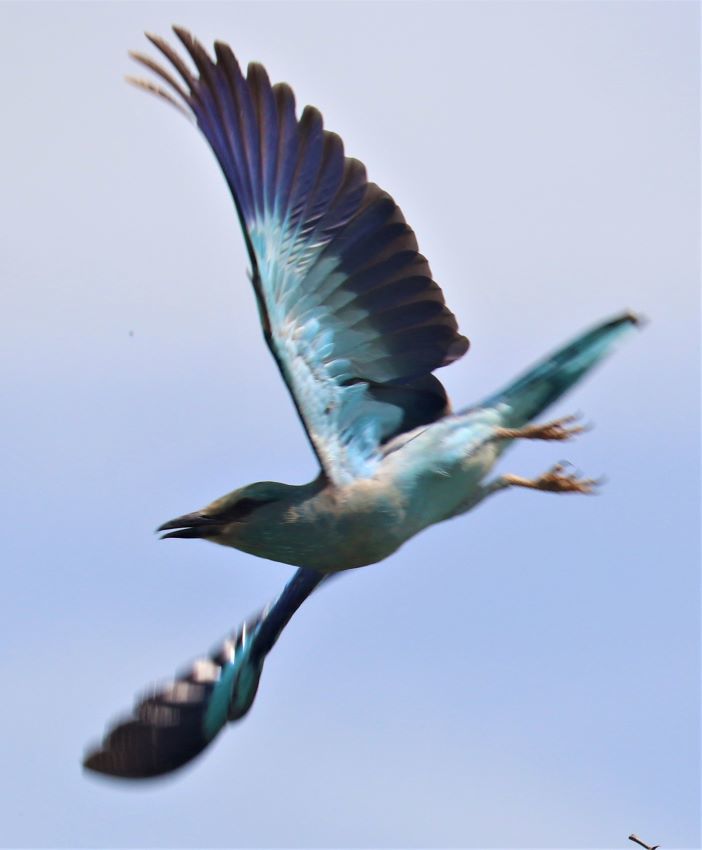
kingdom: Animalia
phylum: Chordata
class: Aves
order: Coraciiformes
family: Coraciidae
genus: Coracias
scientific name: Coracias garrulus
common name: European roller
